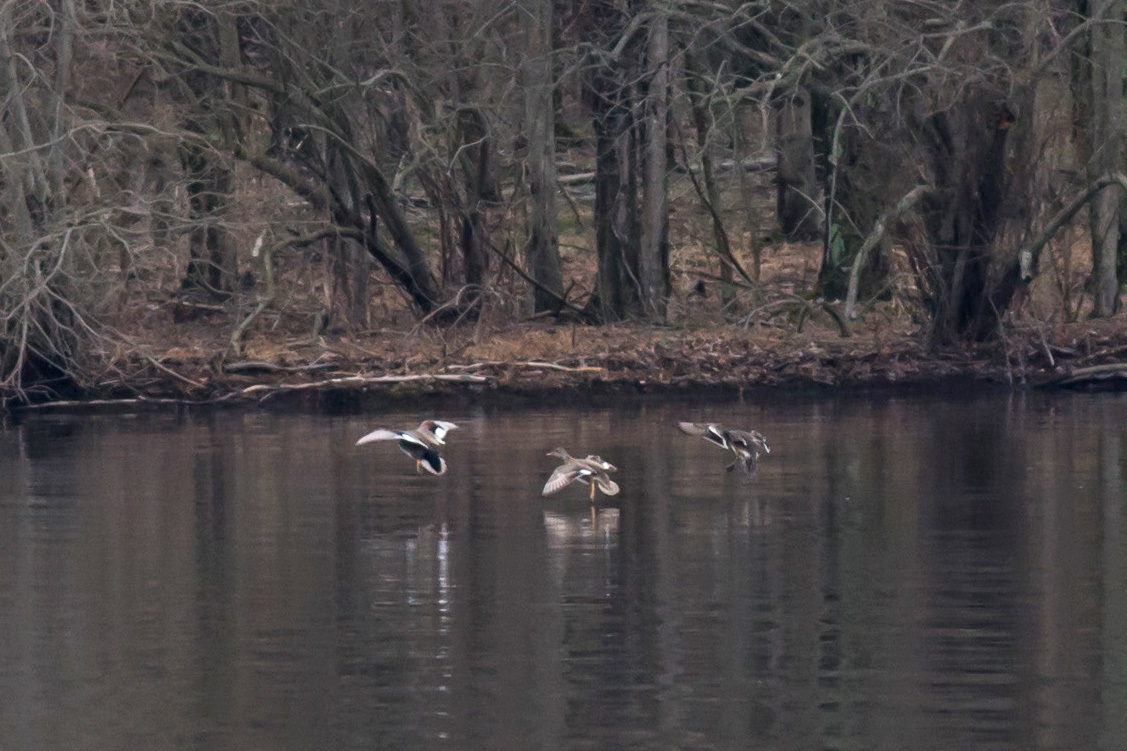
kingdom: Animalia
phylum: Chordata
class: Aves
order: Anseriformes
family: Anatidae
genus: Mareca
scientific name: Mareca strepera
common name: Gadwall
